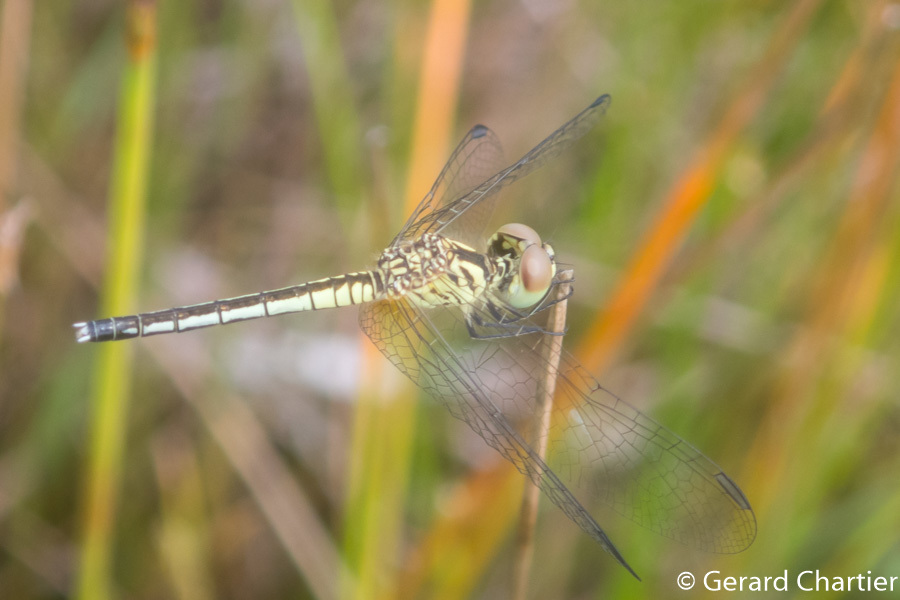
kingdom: Animalia
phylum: Arthropoda
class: Insecta
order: Odonata
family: Libellulidae
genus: Diplacodes
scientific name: Diplacodes nebulosa
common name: Black-tipped percher
